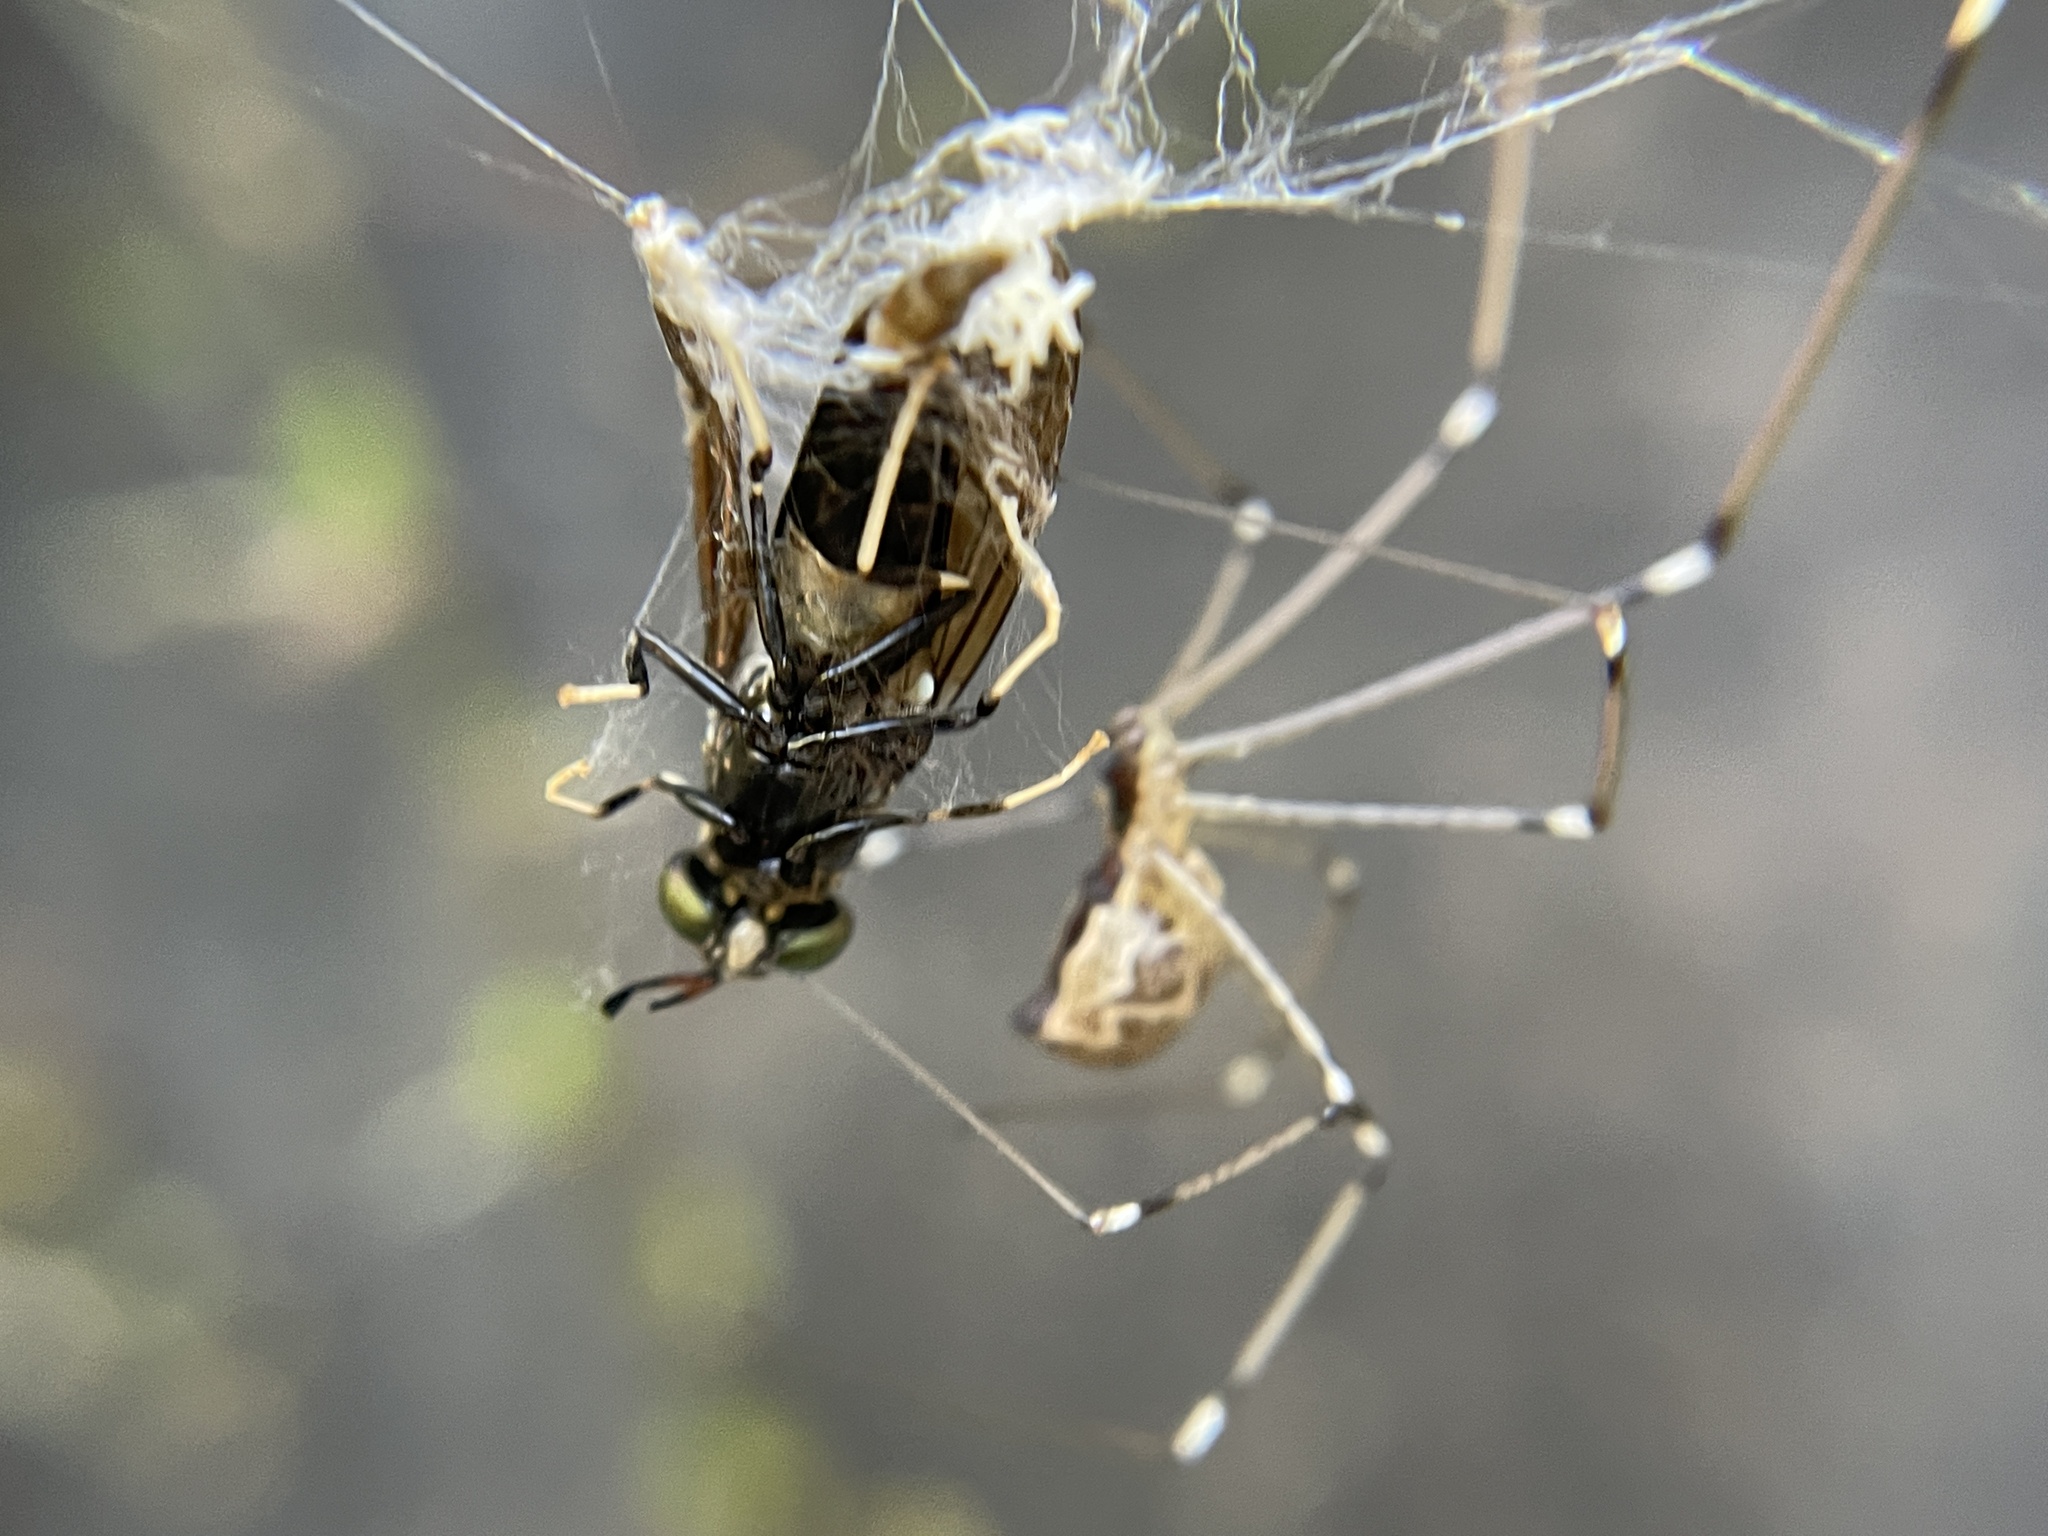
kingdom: Animalia
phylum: Arthropoda
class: Insecta
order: Diptera
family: Stratiomyidae
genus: Hermetia
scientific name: Hermetia illucens
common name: Black soldier fly
